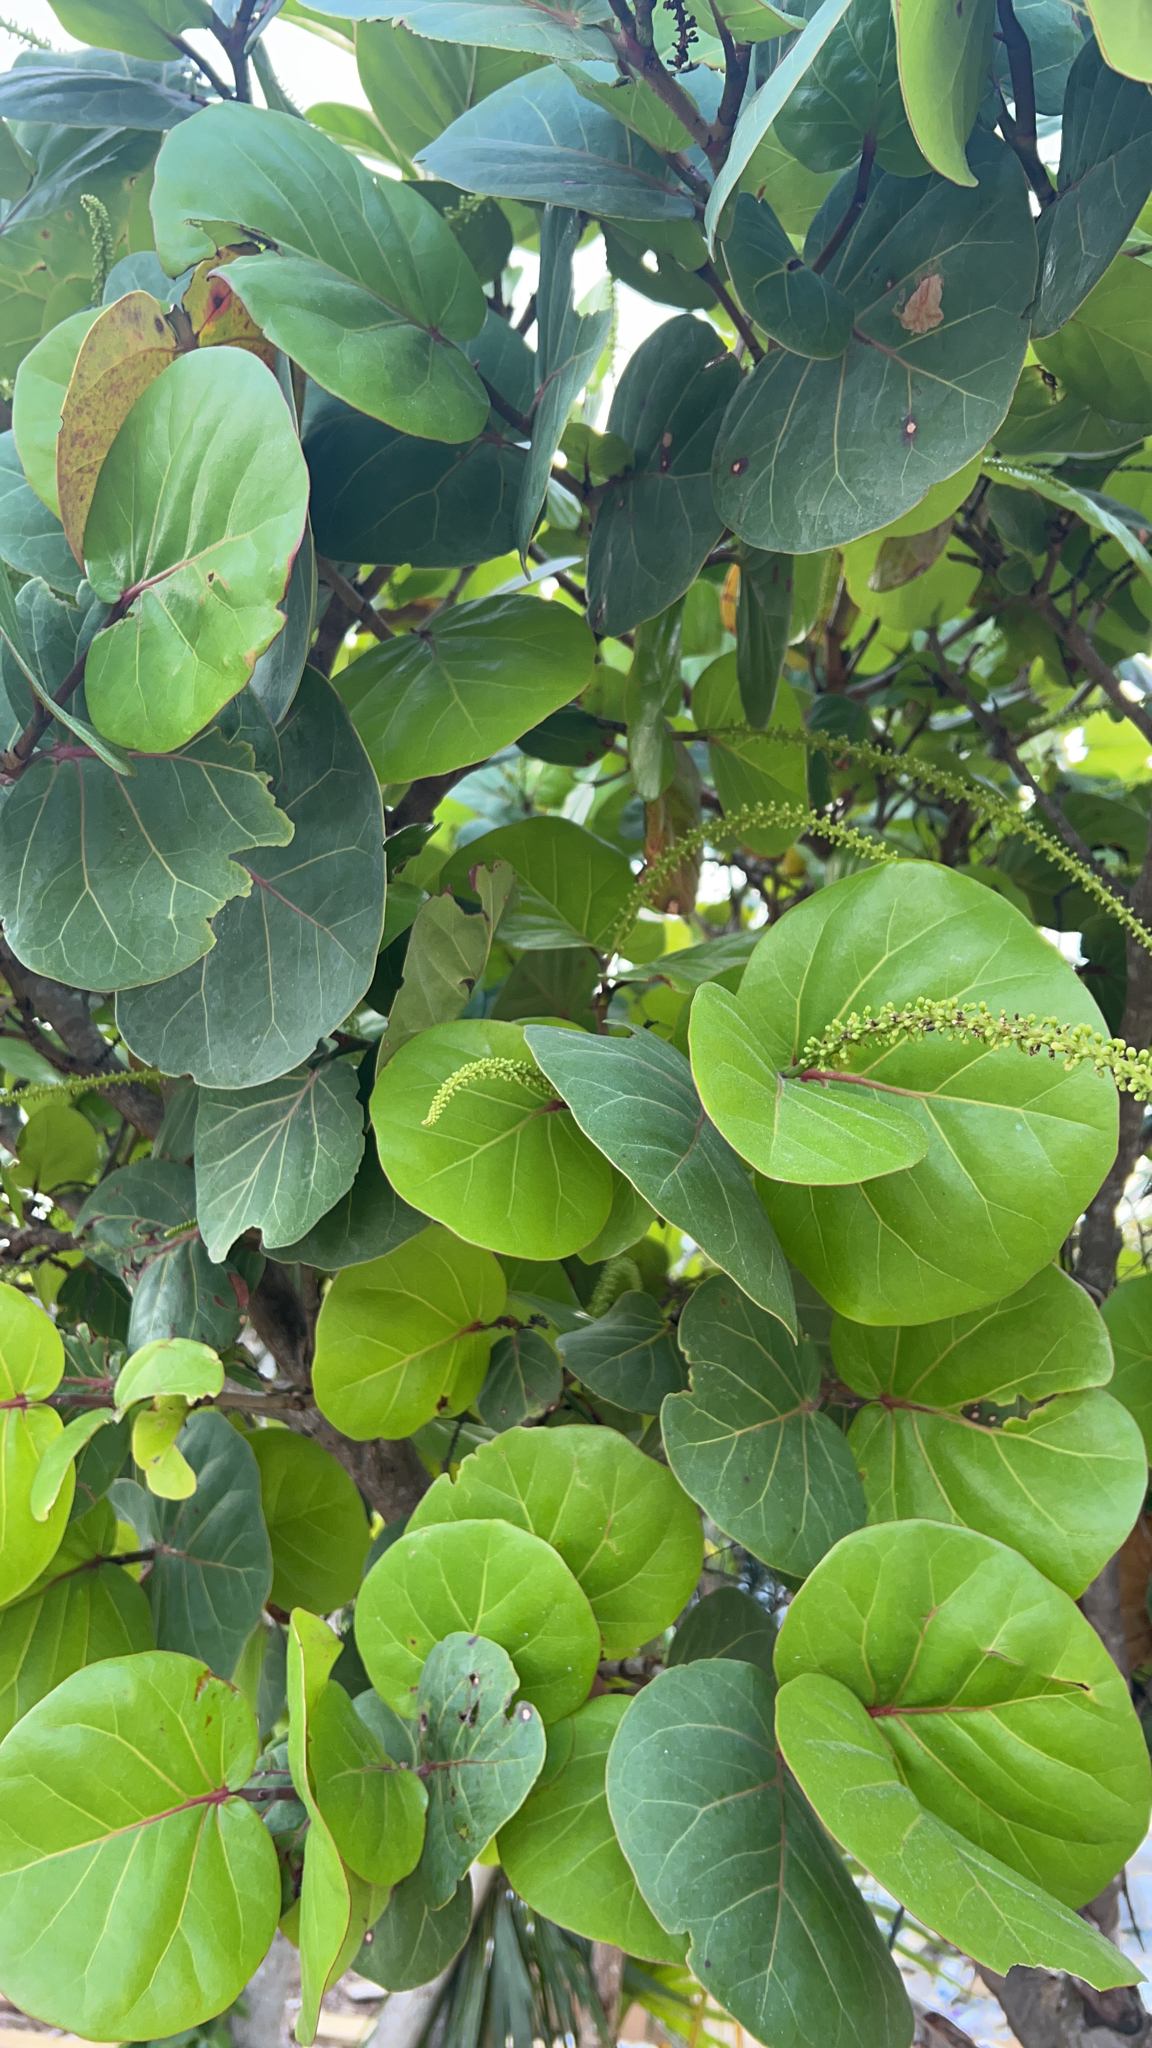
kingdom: Plantae
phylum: Tracheophyta
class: Magnoliopsida
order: Caryophyllales
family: Polygonaceae
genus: Coccoloba
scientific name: Coccoloba uvifera
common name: Seagrape
